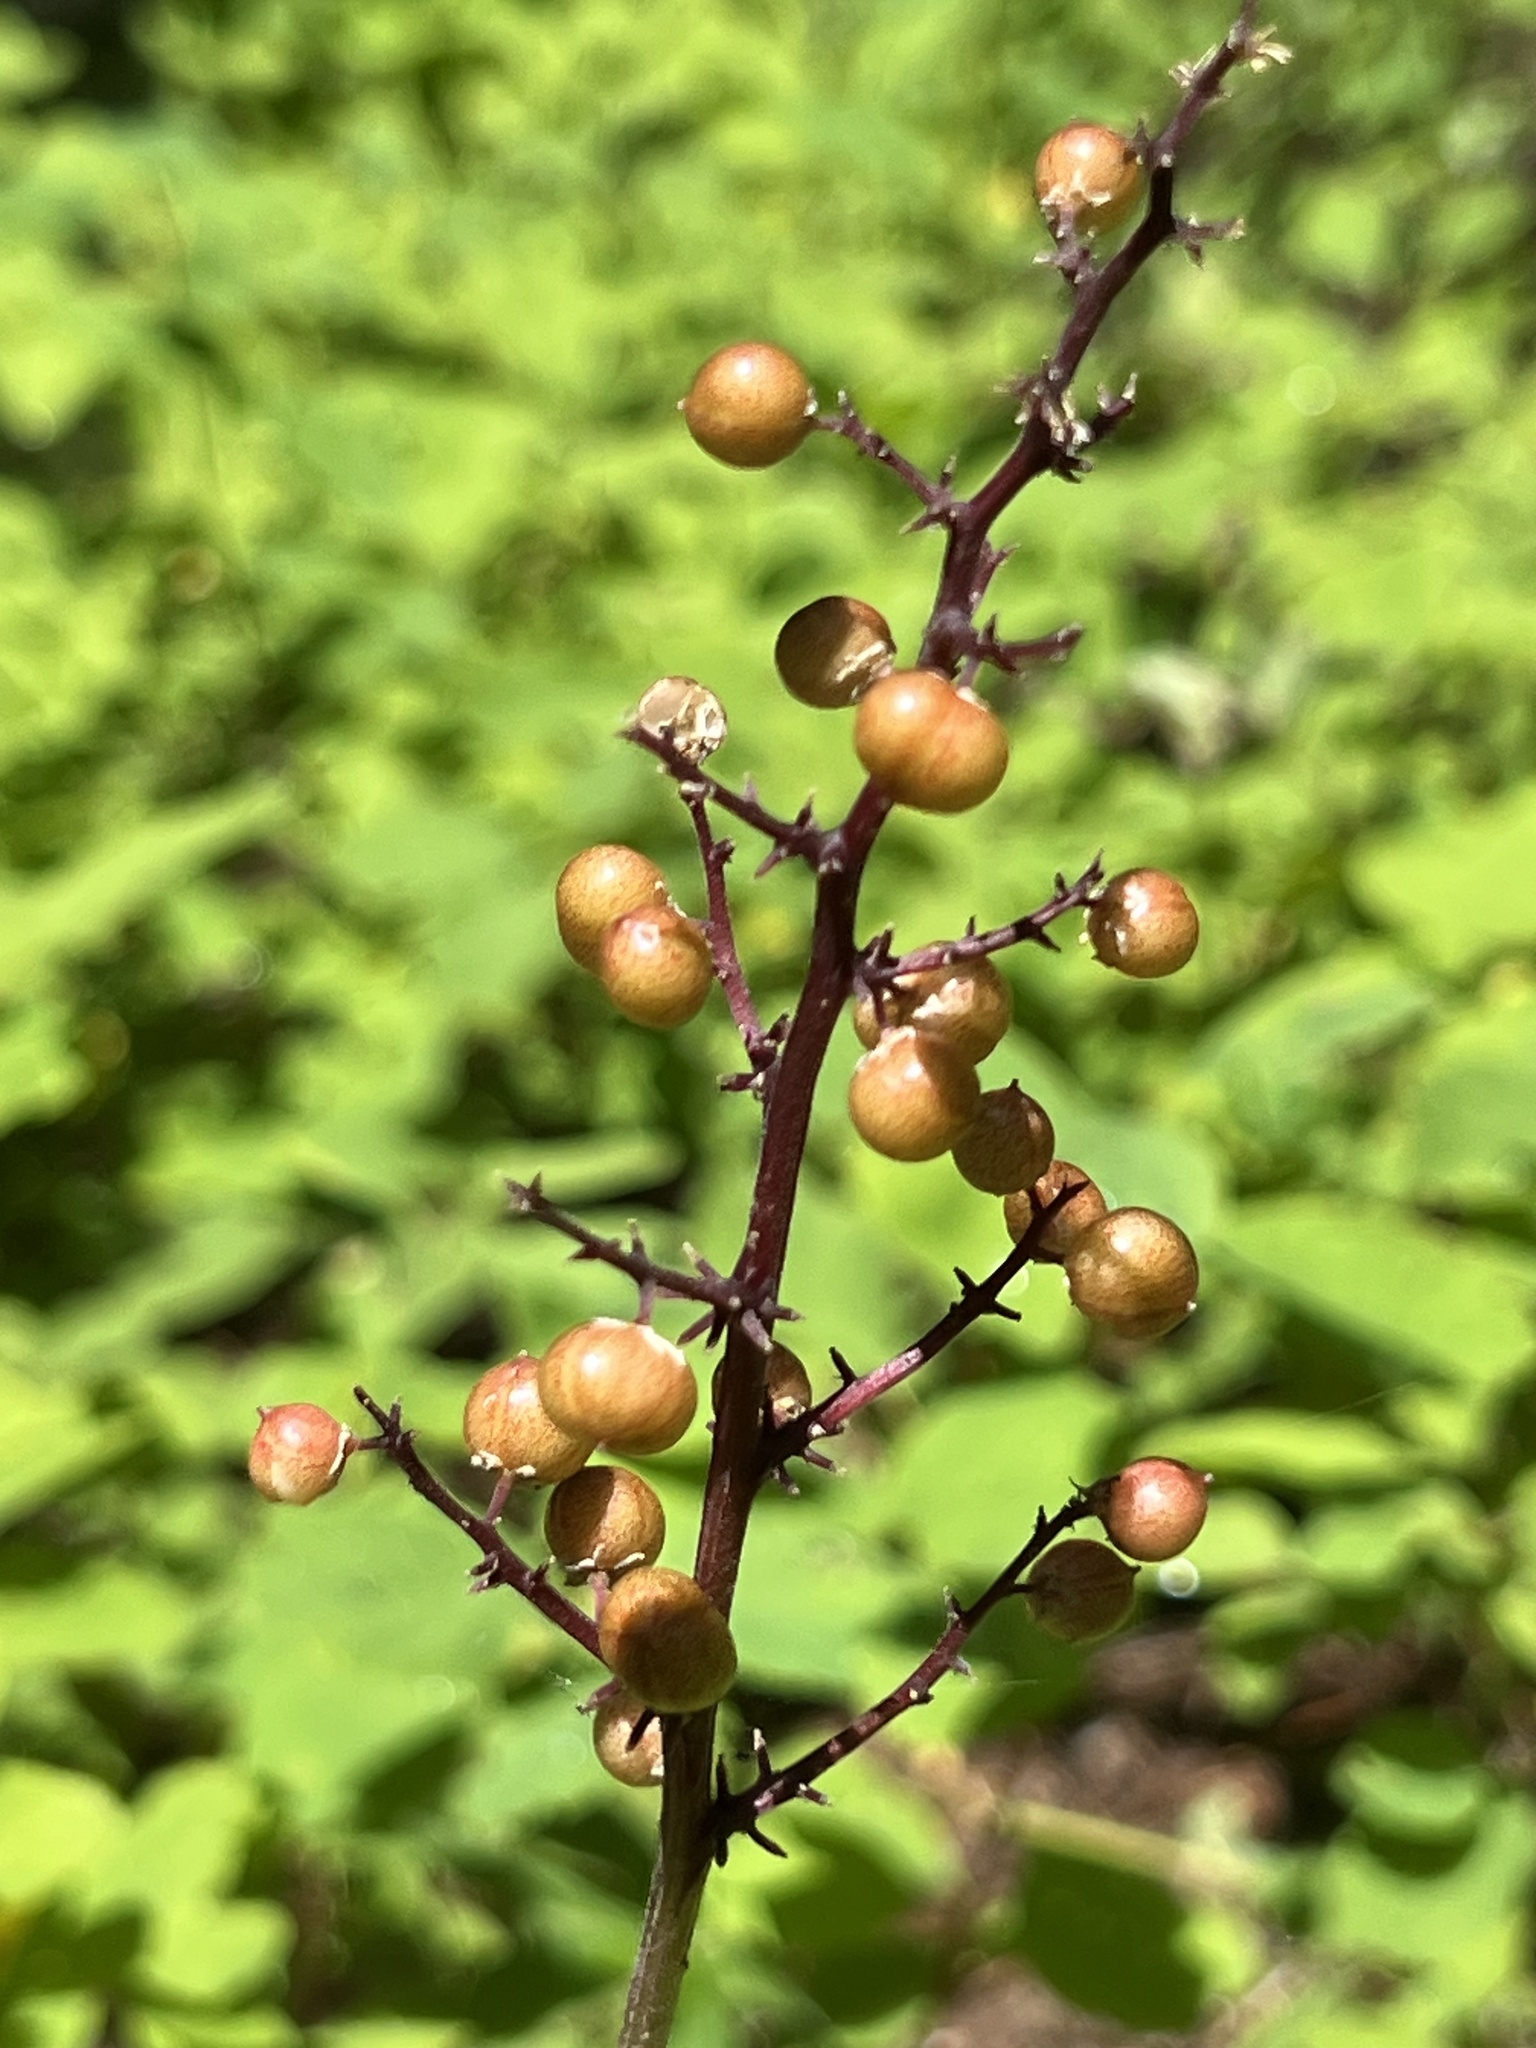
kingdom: Plantae
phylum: Tracheophyta
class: Liliopsida
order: Asparagales
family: Asparagaceae
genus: Maianthemum
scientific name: Maianthemum racemosum
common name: False spikenard
